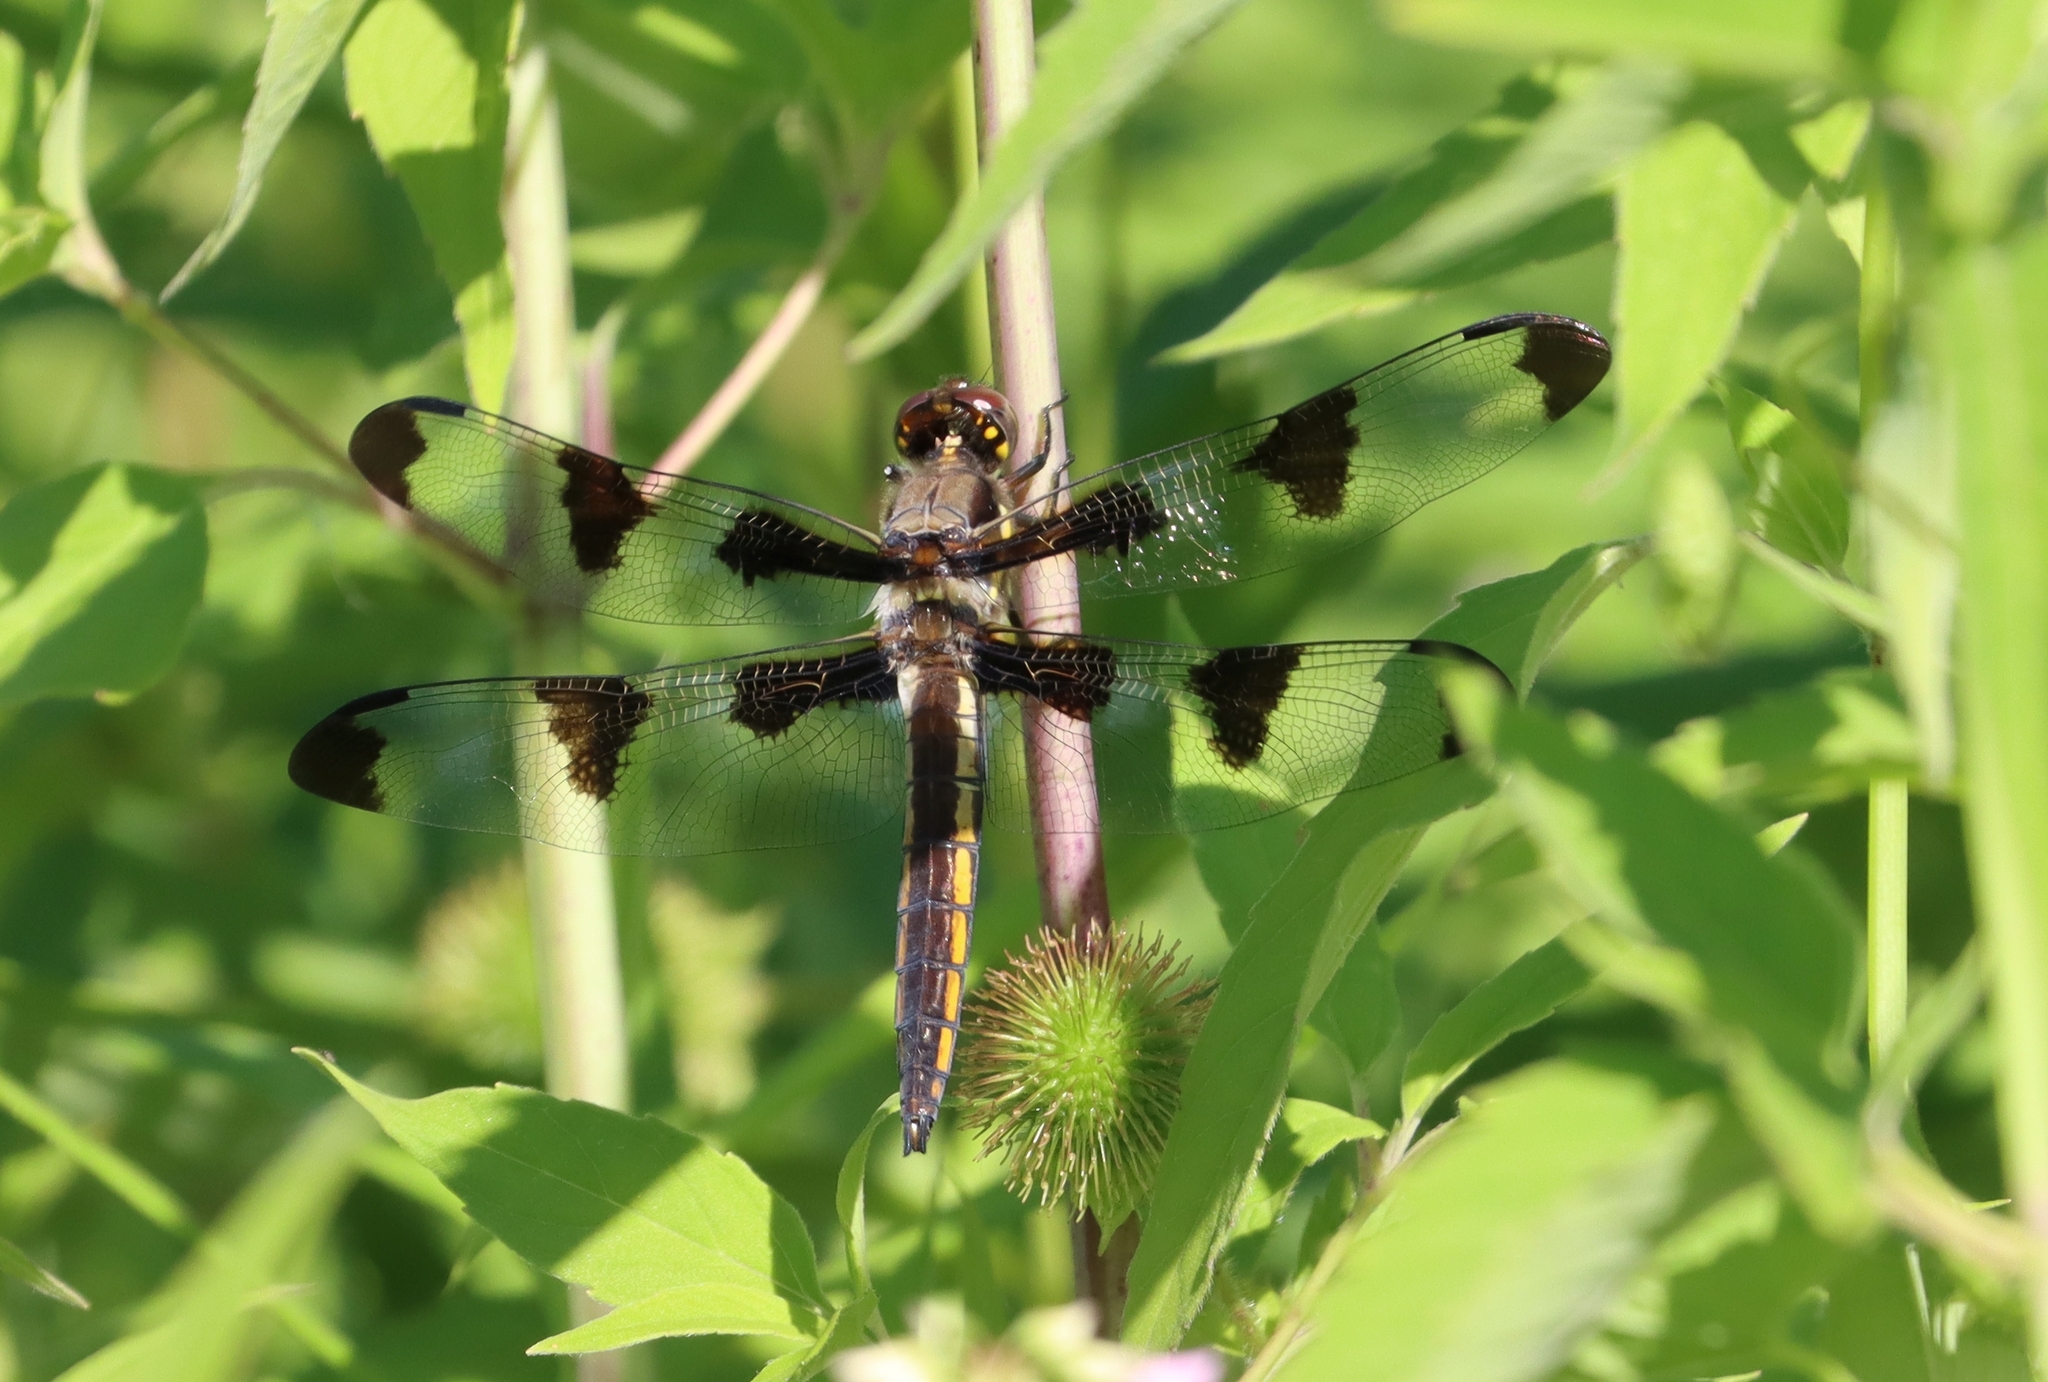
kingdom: Animalia
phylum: Arthropoda
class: Insecta
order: Odonata
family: Libellulidae
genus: Libellula
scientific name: Libellula pulchella
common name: Twelve-spotted skimmer
